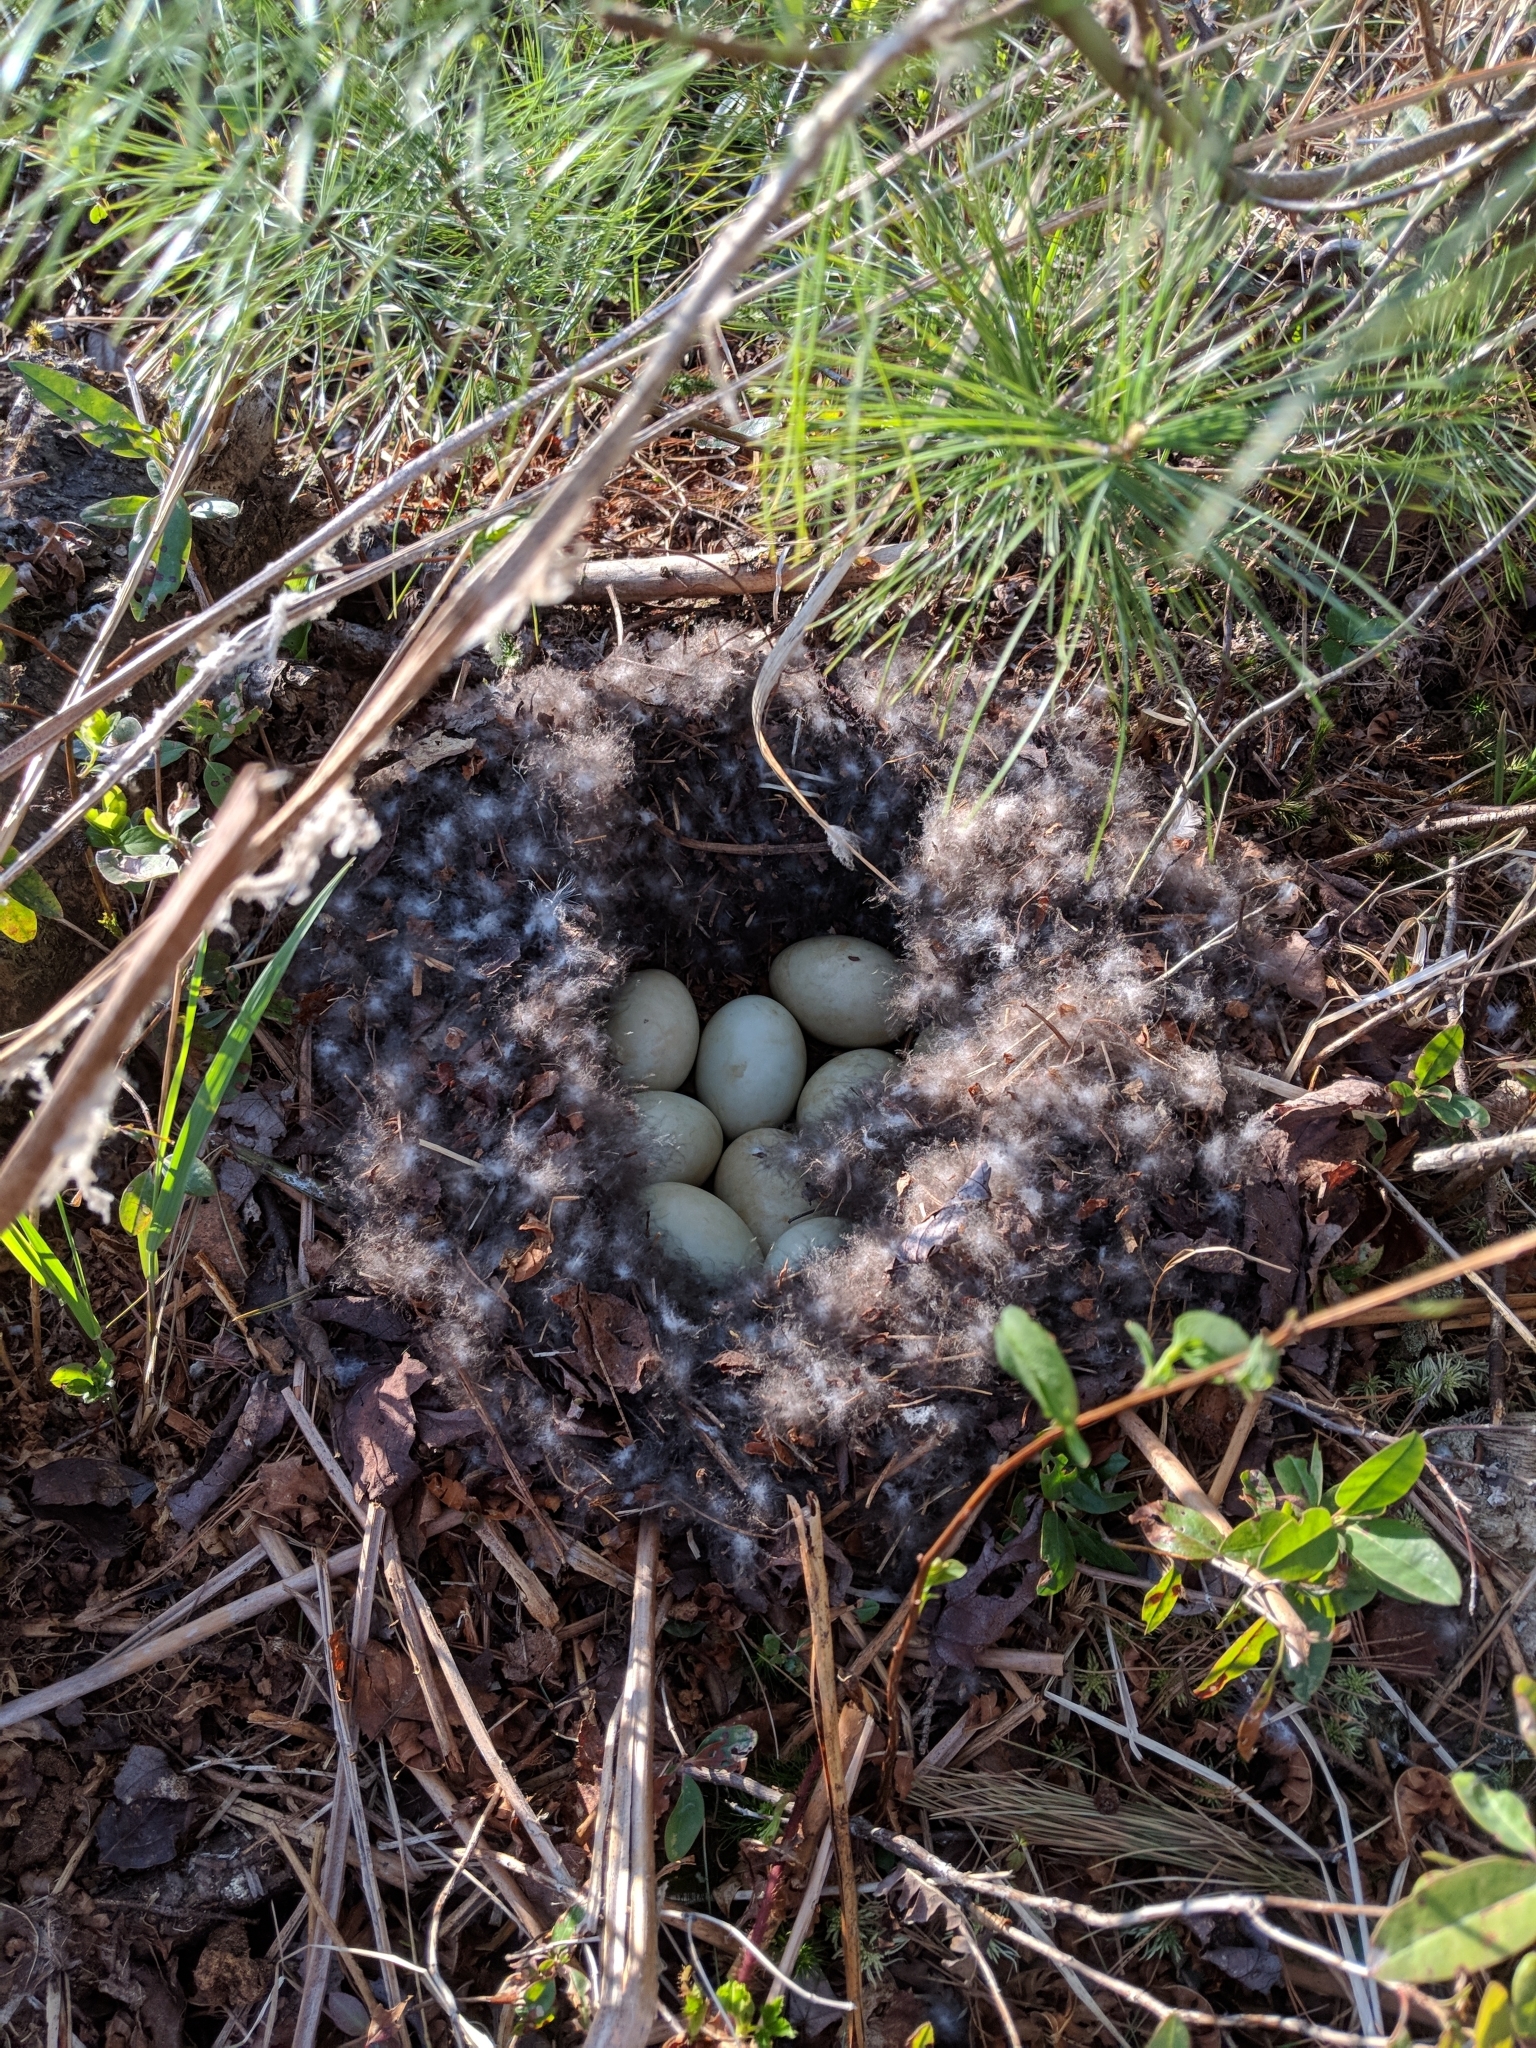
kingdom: Animalia
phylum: Chordata
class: Aves
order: Anseriformes
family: Anatidae
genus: Anas
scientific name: Anas platyrhynchos
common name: Mallard
